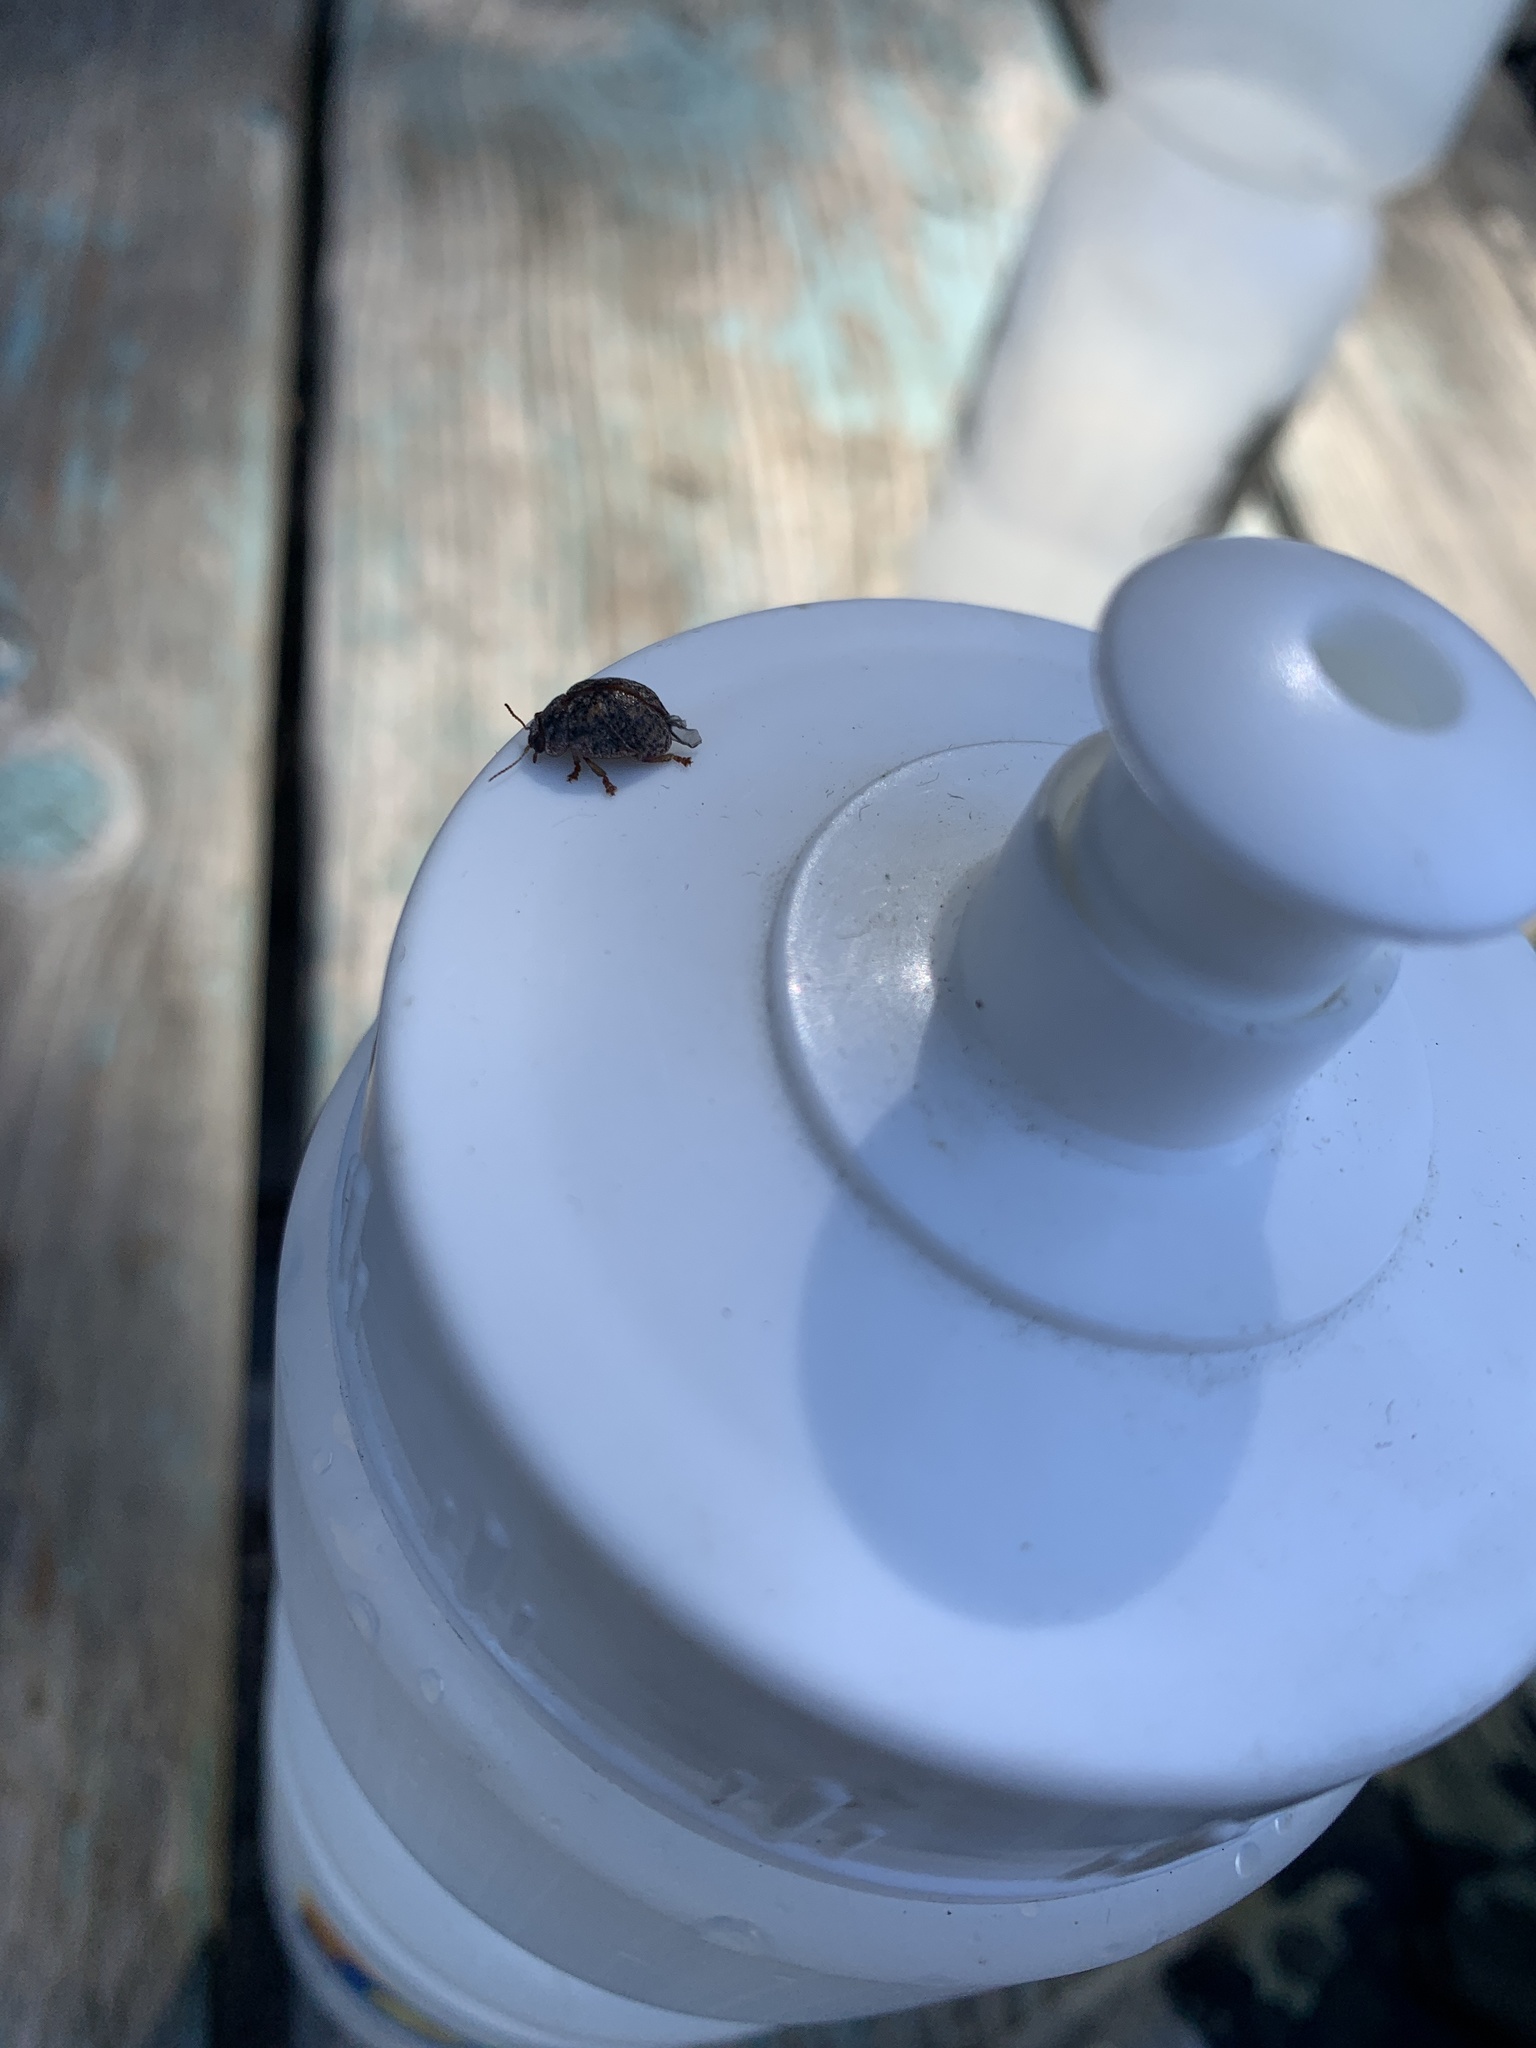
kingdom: Animalia
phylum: Arthropoda
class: Insecta
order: Coleoptera
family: Chrysomelidae
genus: Trachymela
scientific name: Trachymela sloanei
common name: Australian tortoise beetle
